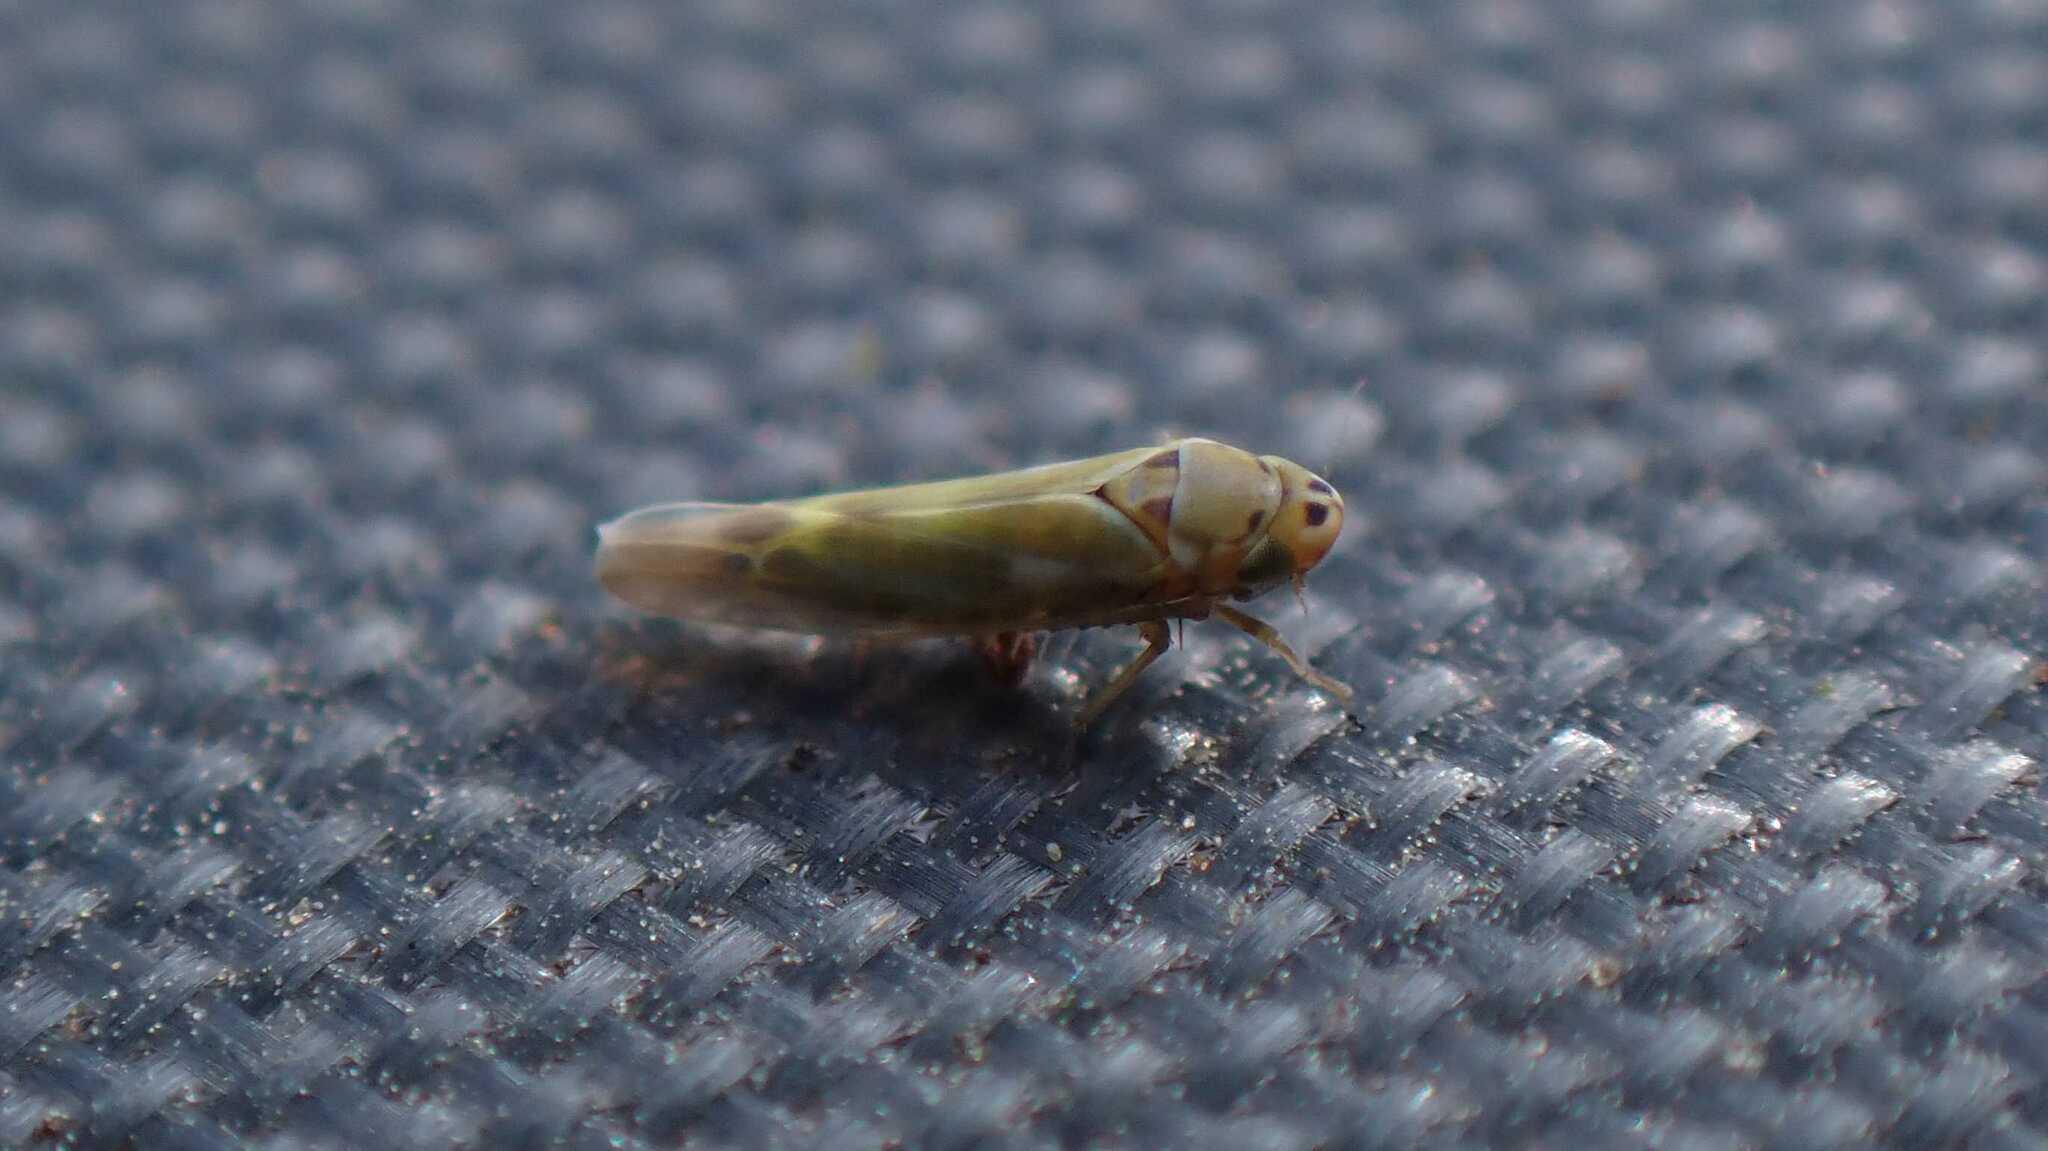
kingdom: Animalia
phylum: Arthropoda
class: Insecta
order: Hemiptera
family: Cicadellidae
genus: Frutioidia
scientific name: Frutioidia bisignata
